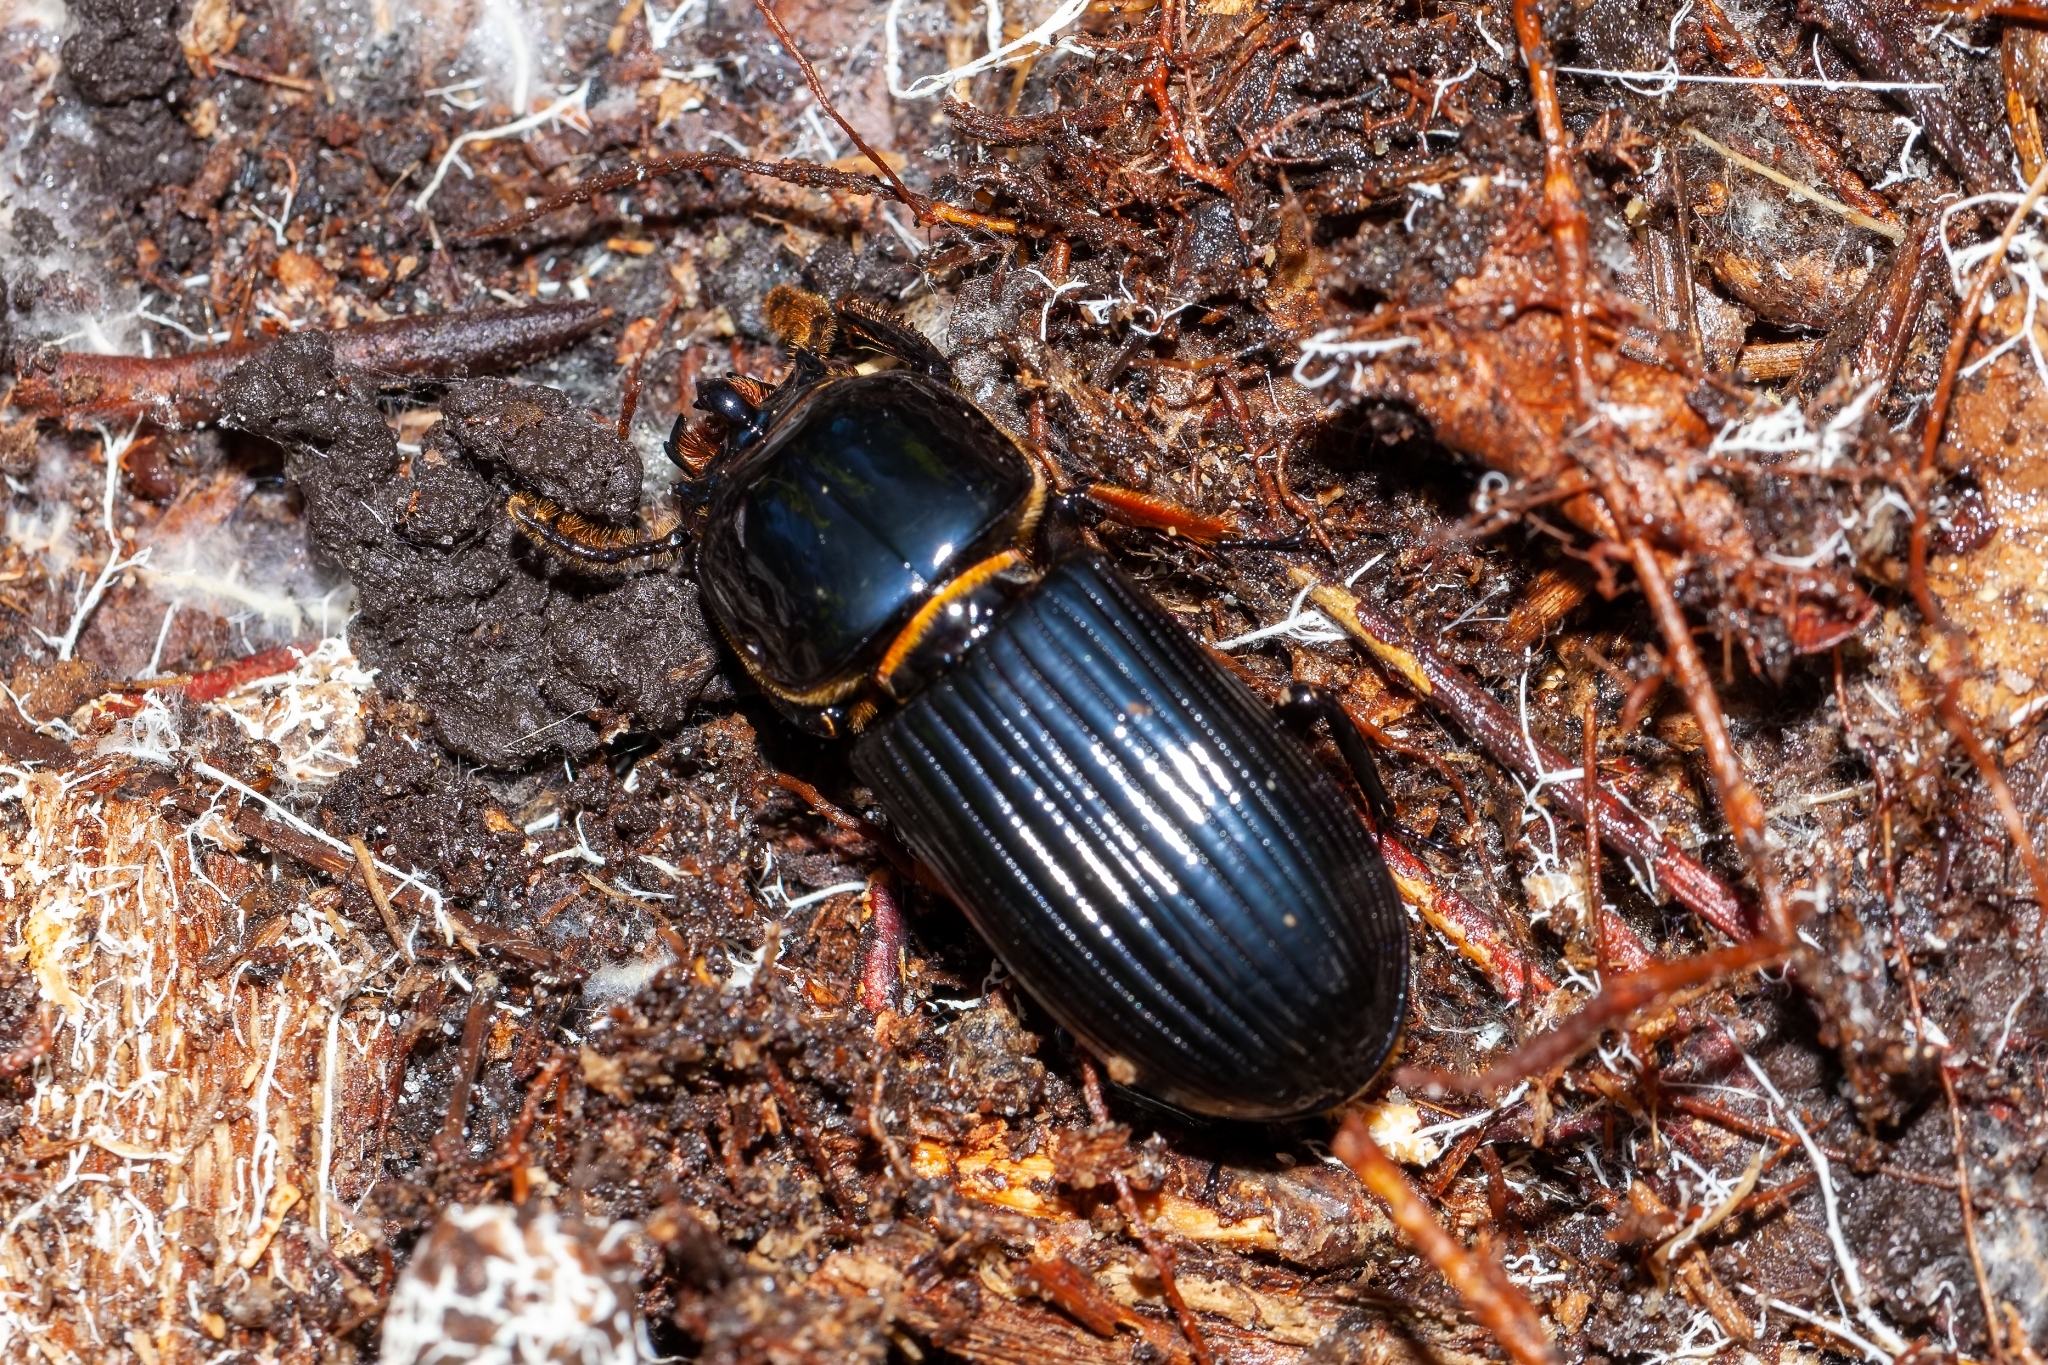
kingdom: Animalia
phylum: Arthropoda
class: Insecta
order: Coleoptera
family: Passalidae
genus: Odontotaenius
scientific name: Odontotaenius disjunctus
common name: Patent leather beetle
